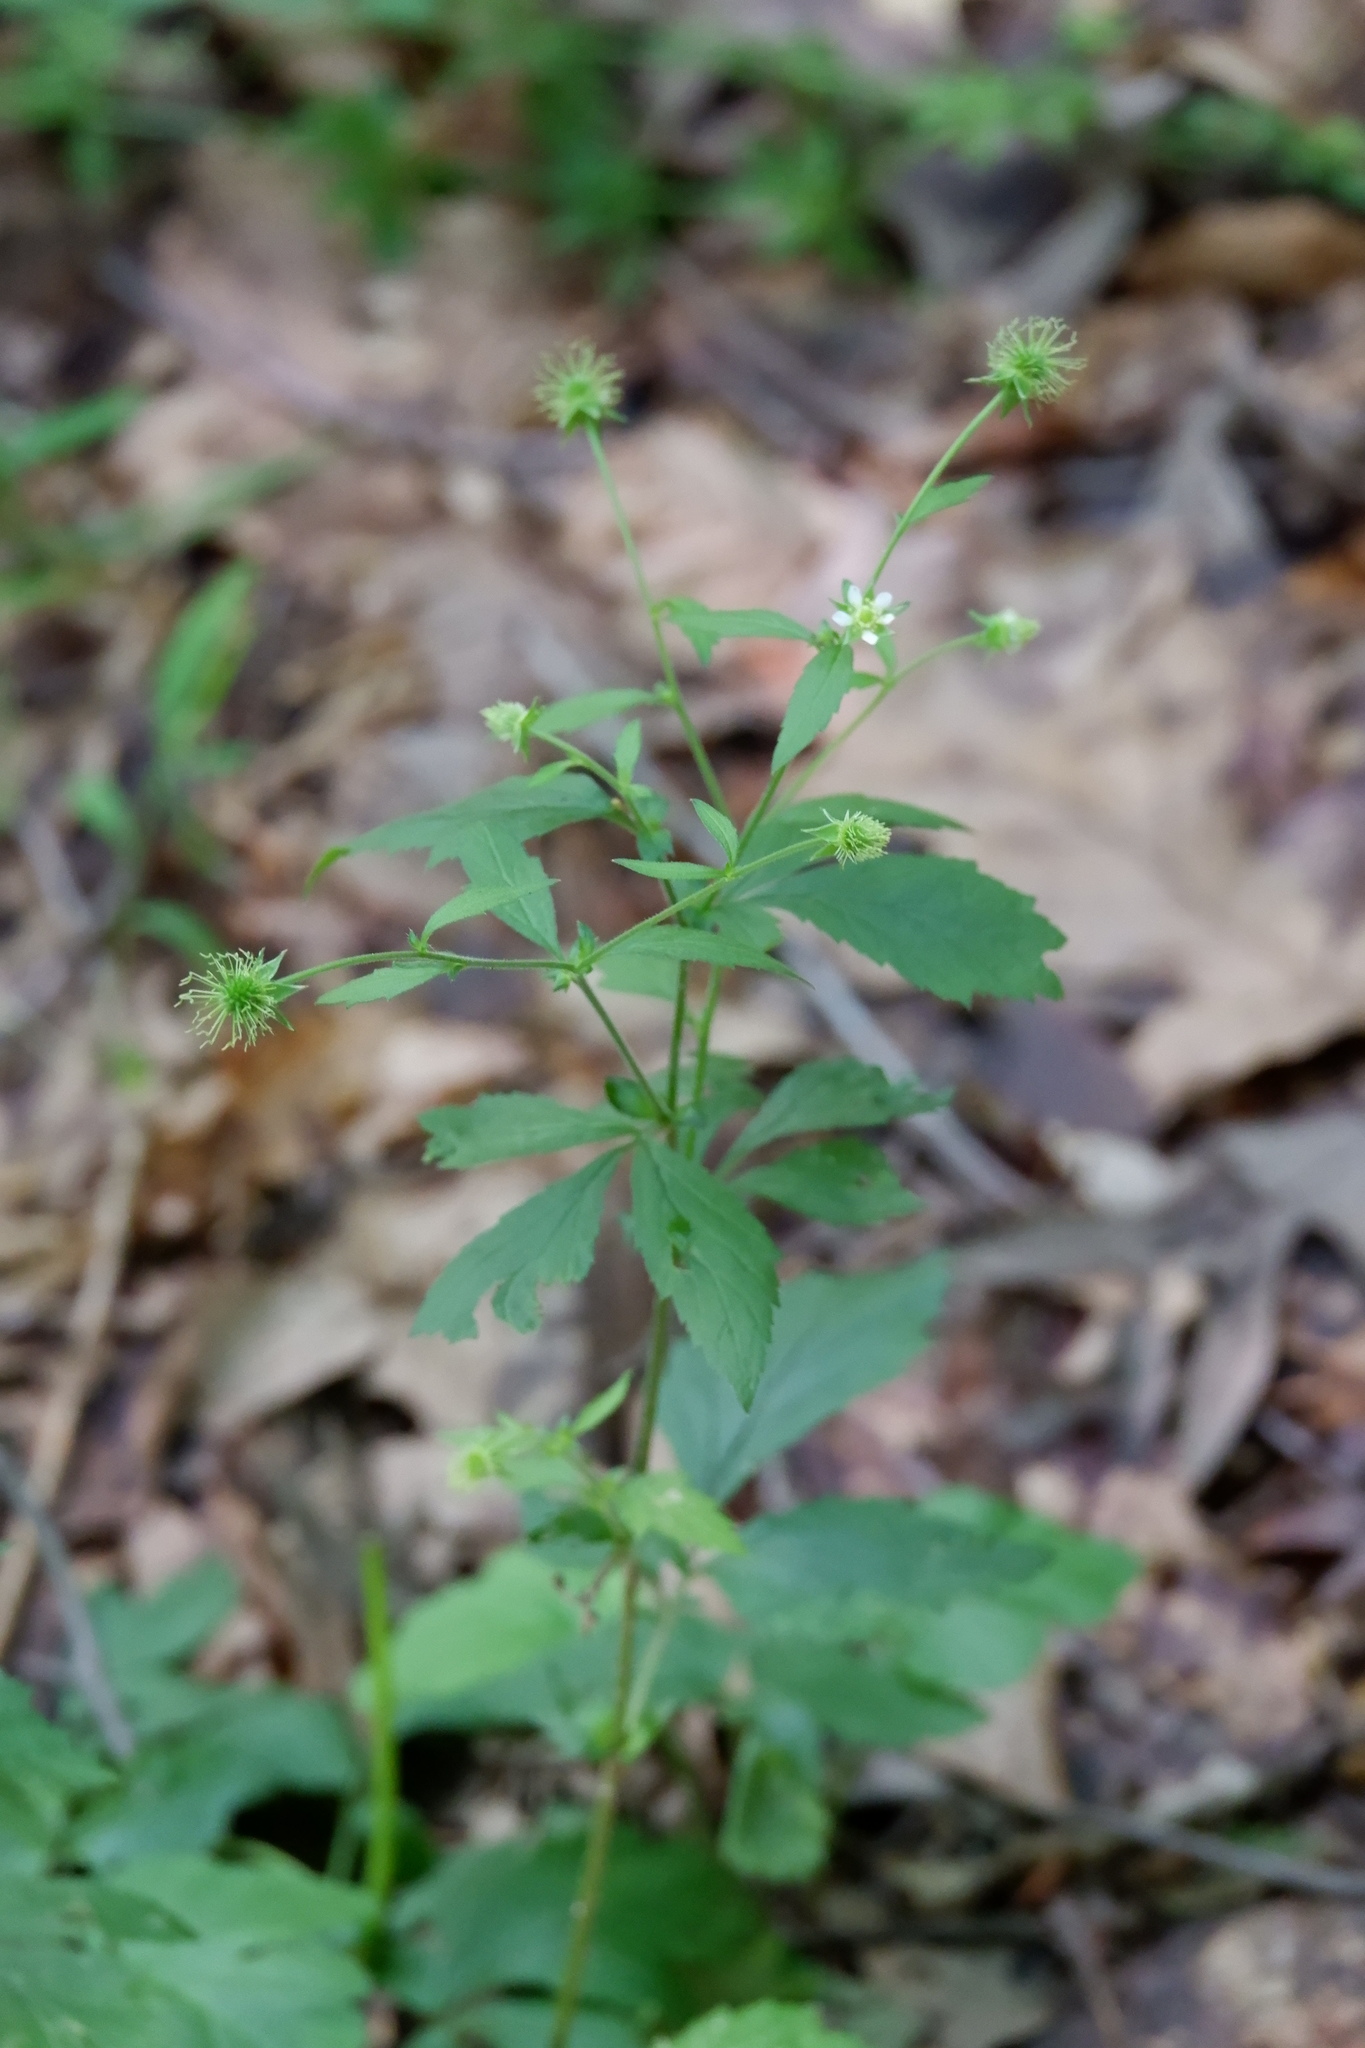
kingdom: Plantae
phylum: Tracheophyta
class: Magnoliopsida
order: Rosales
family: Rosaceae
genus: Geum
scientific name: Geum canadense
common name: White avens
